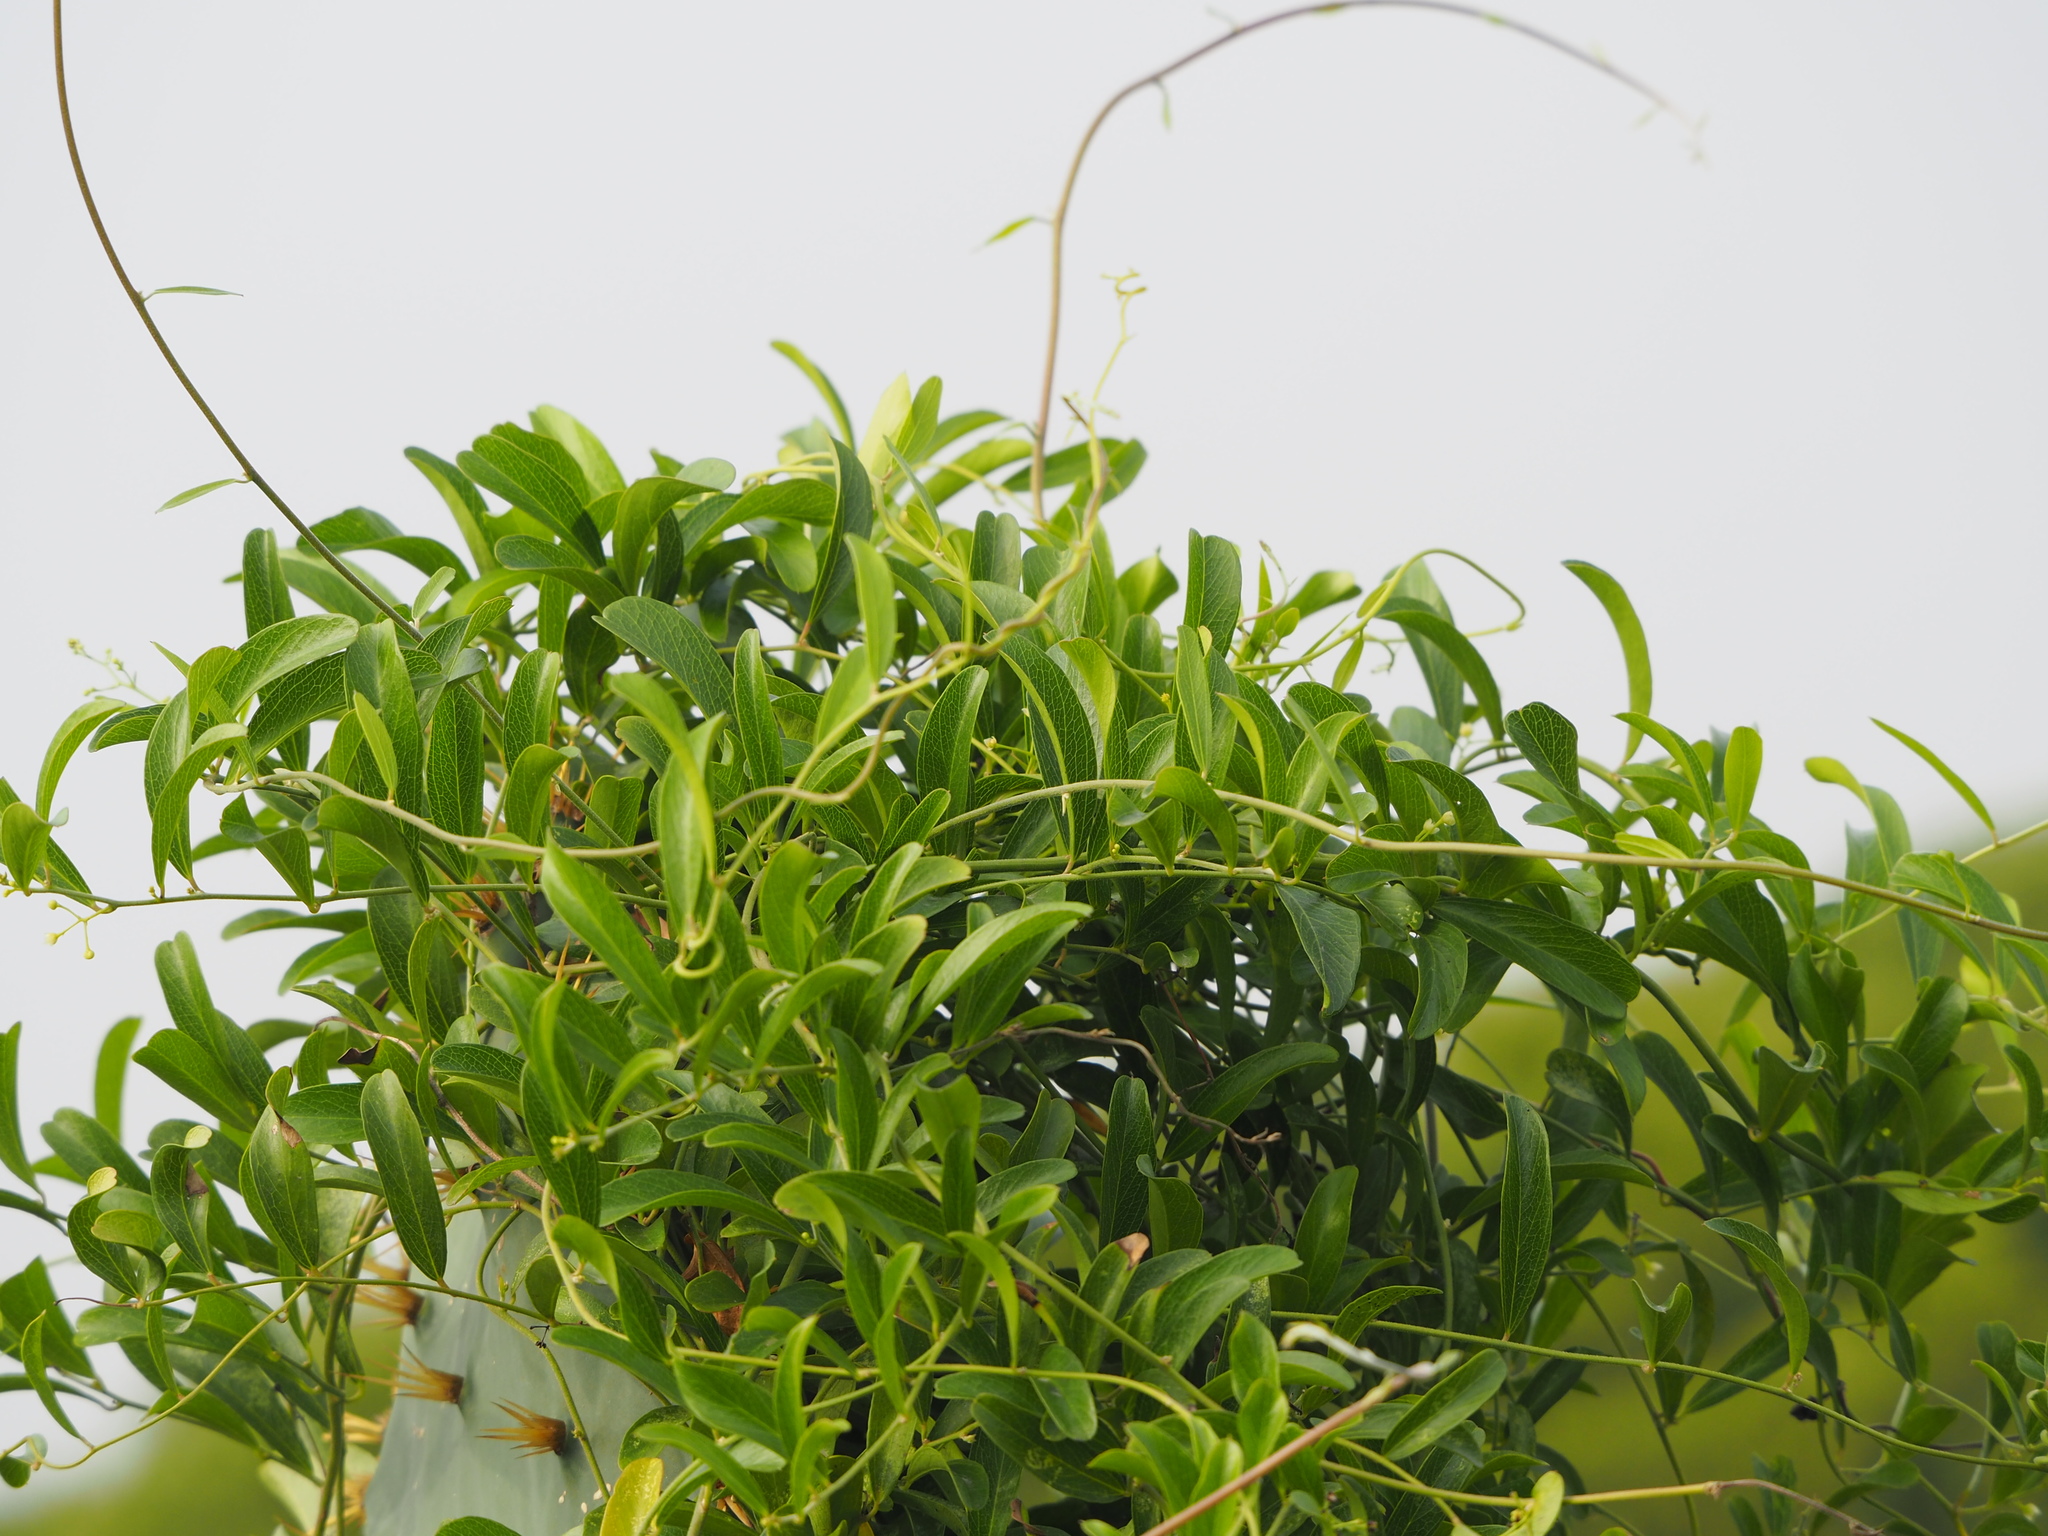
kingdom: Plantae
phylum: Tracheophyta
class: Magnoliopsida
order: Gentianales
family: Rubiaceae
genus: Paederia
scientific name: Paederia foetida
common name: Stinkvine
